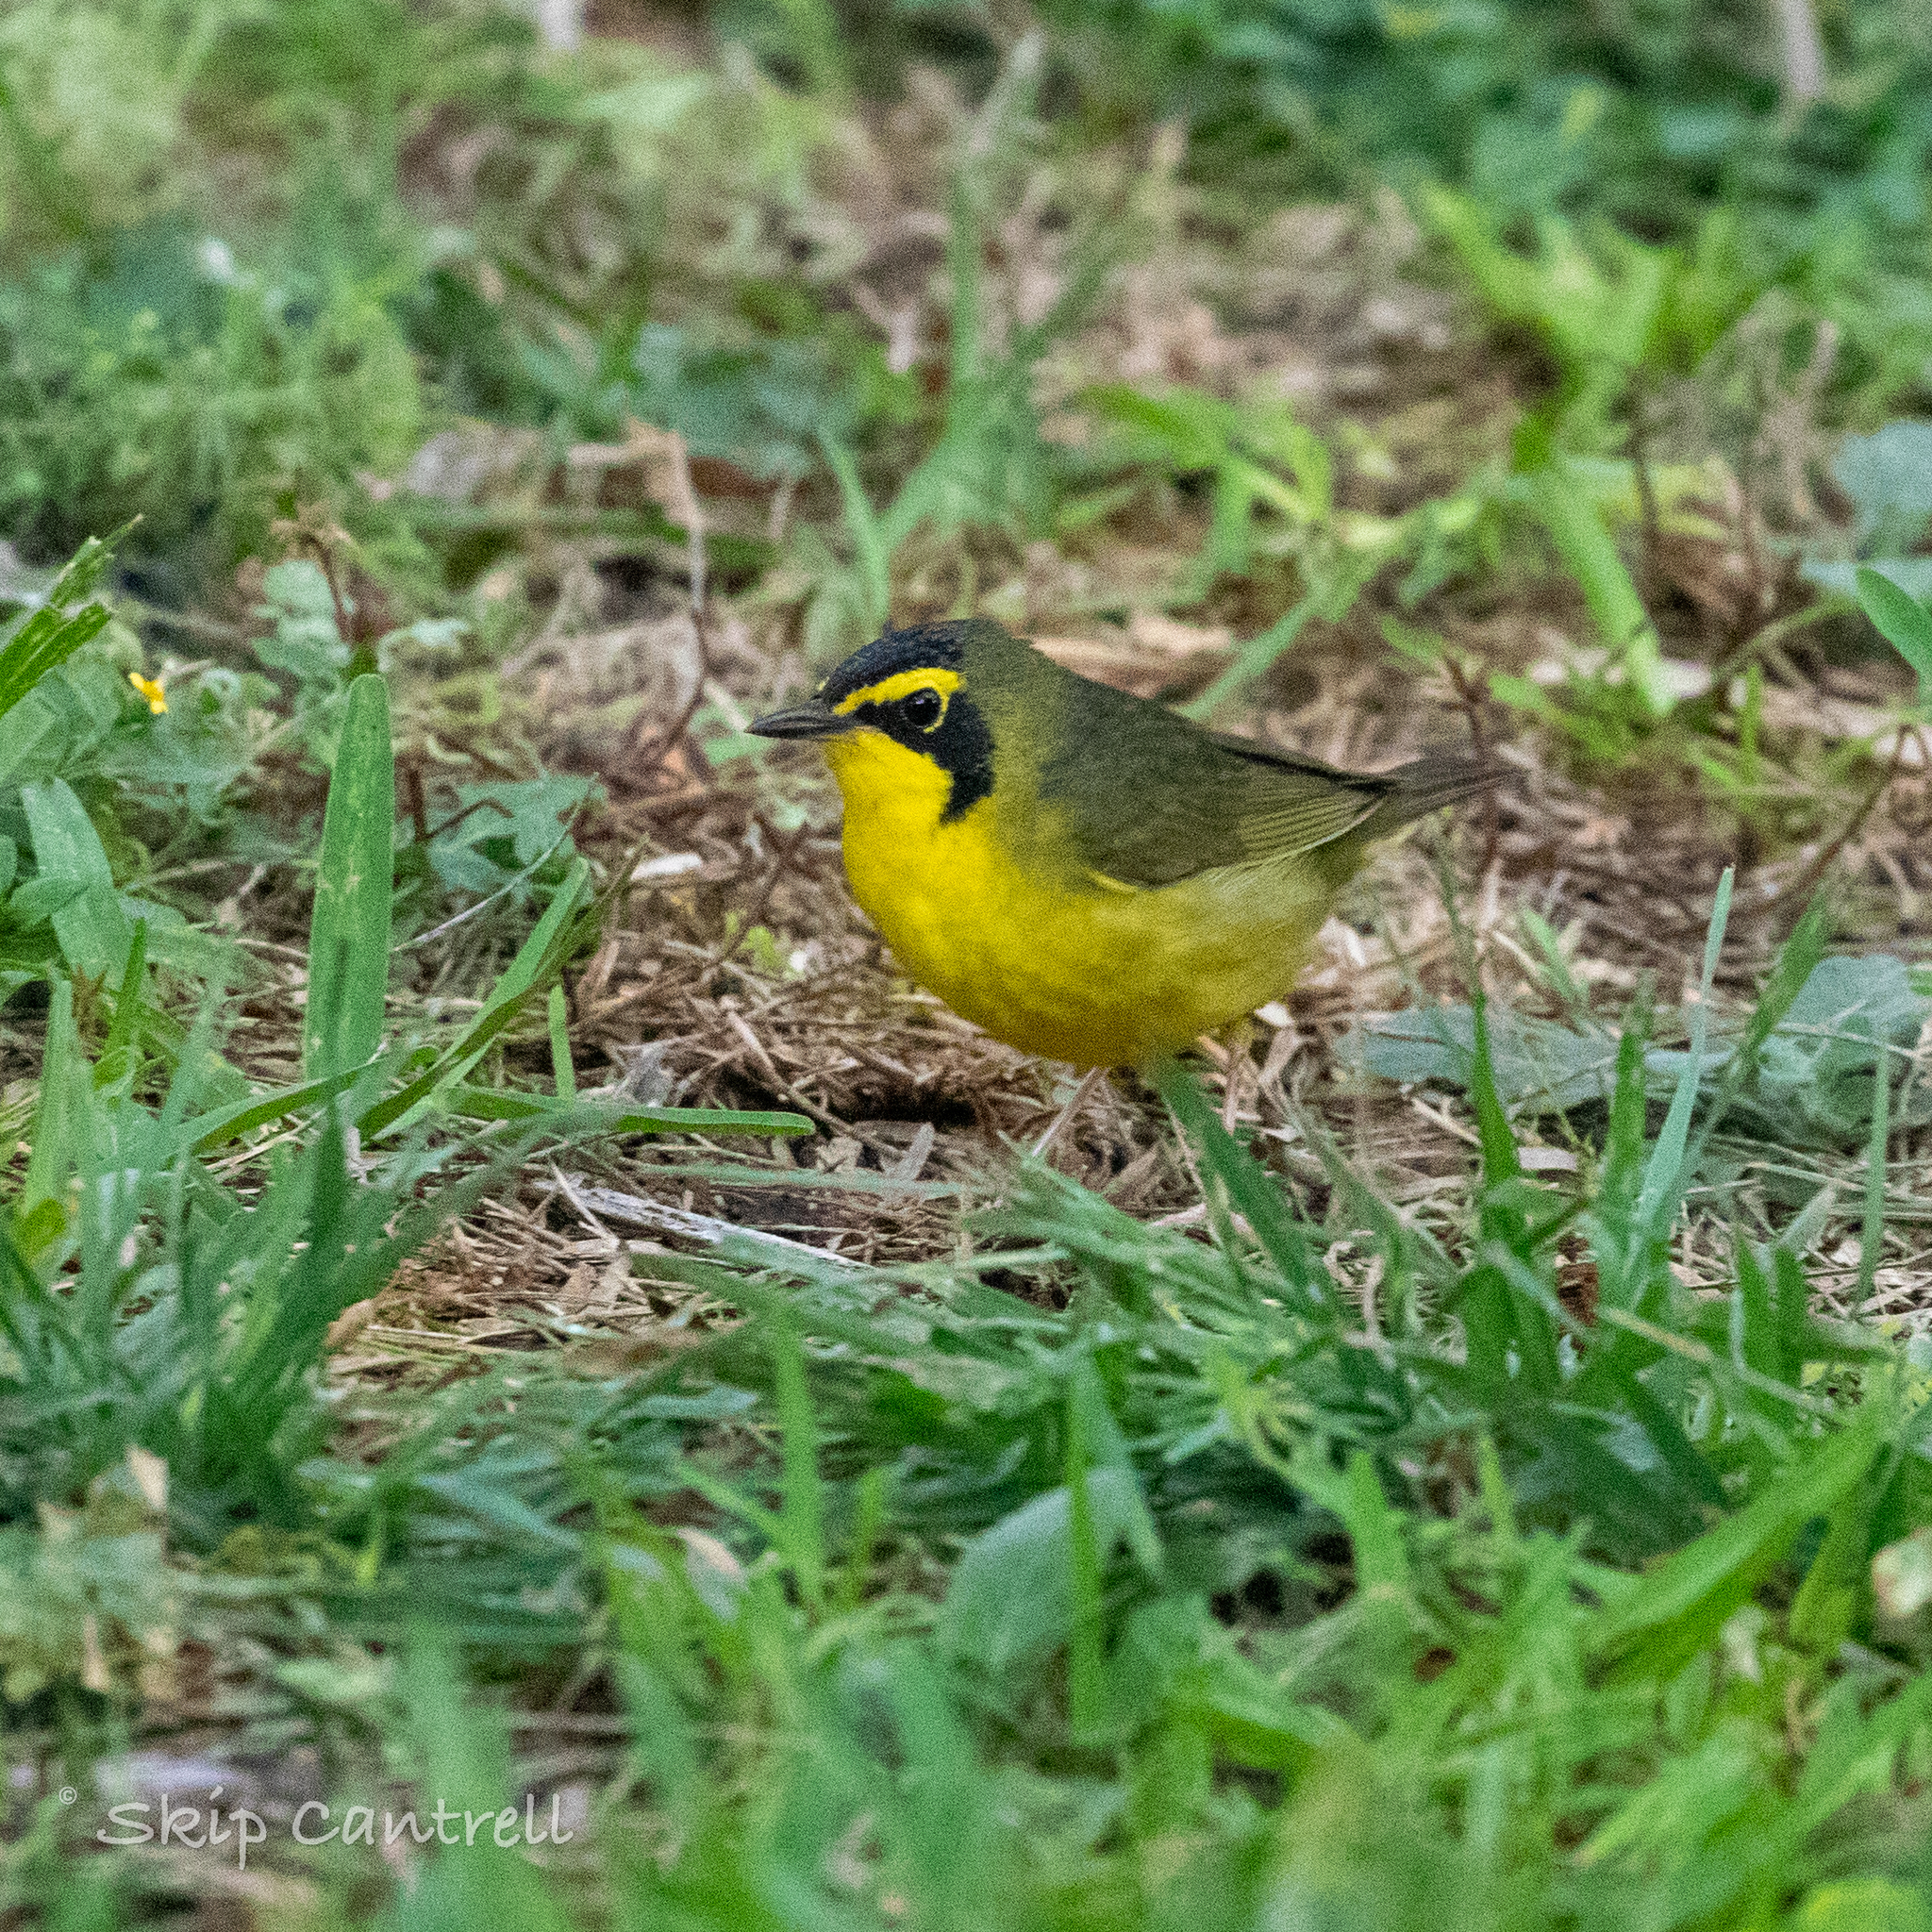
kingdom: Animalia
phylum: Chordata
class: Aves
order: Passeriformes
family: Parulidae
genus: Geothlypis
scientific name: Geothlypis formosa
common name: Kentucky warbler
